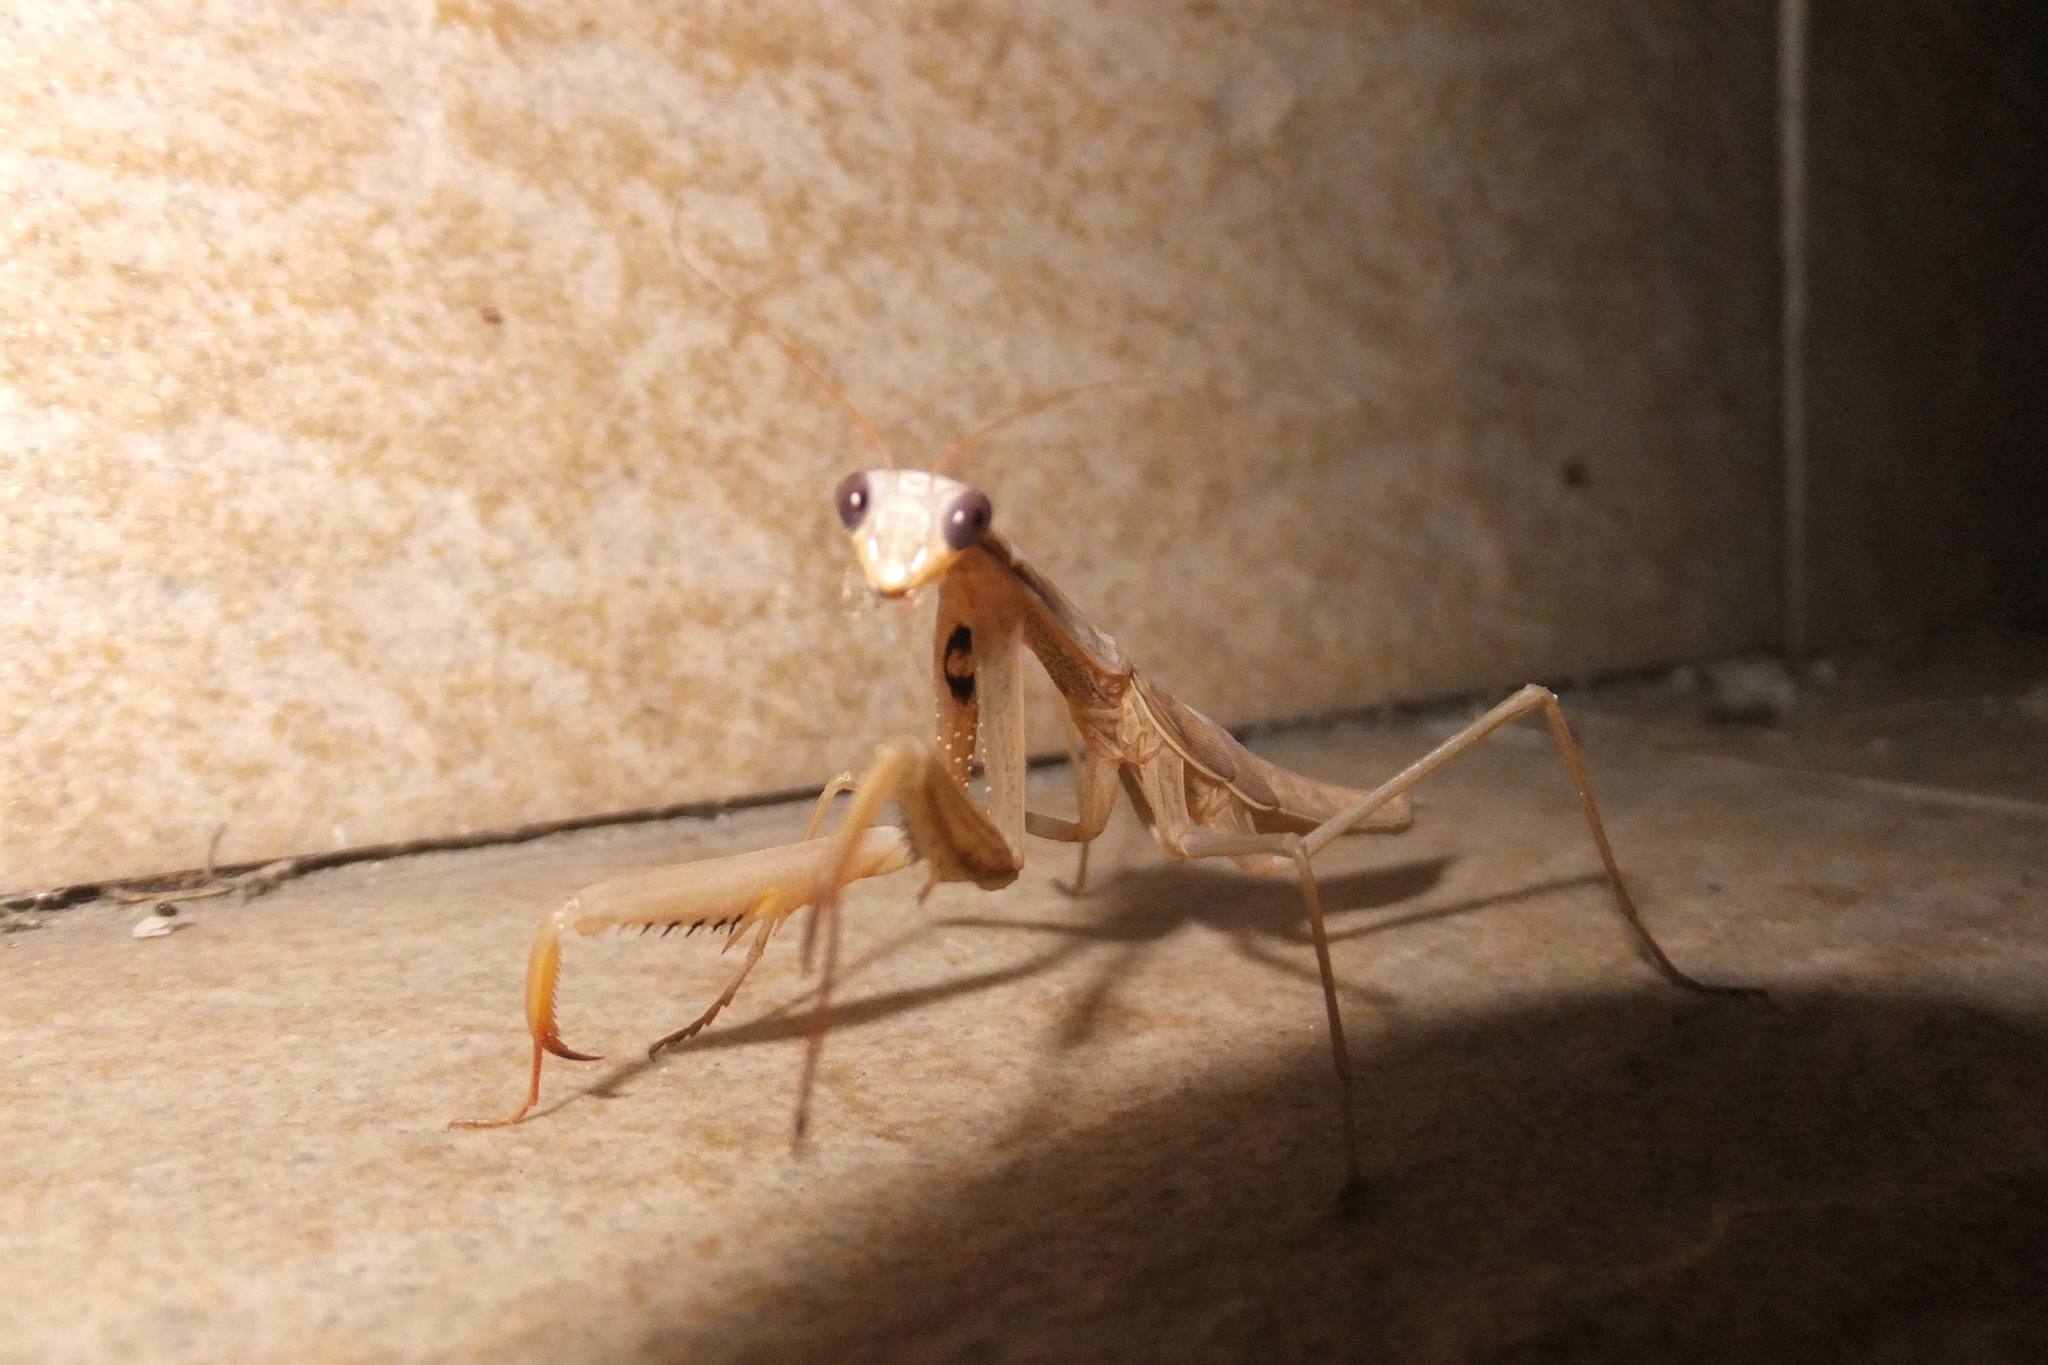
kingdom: Animalia
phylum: Arthropoda
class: Insecta
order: Mantodea
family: Mantidae
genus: Mantis
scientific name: Mantis religiosa
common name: Praying mantis
